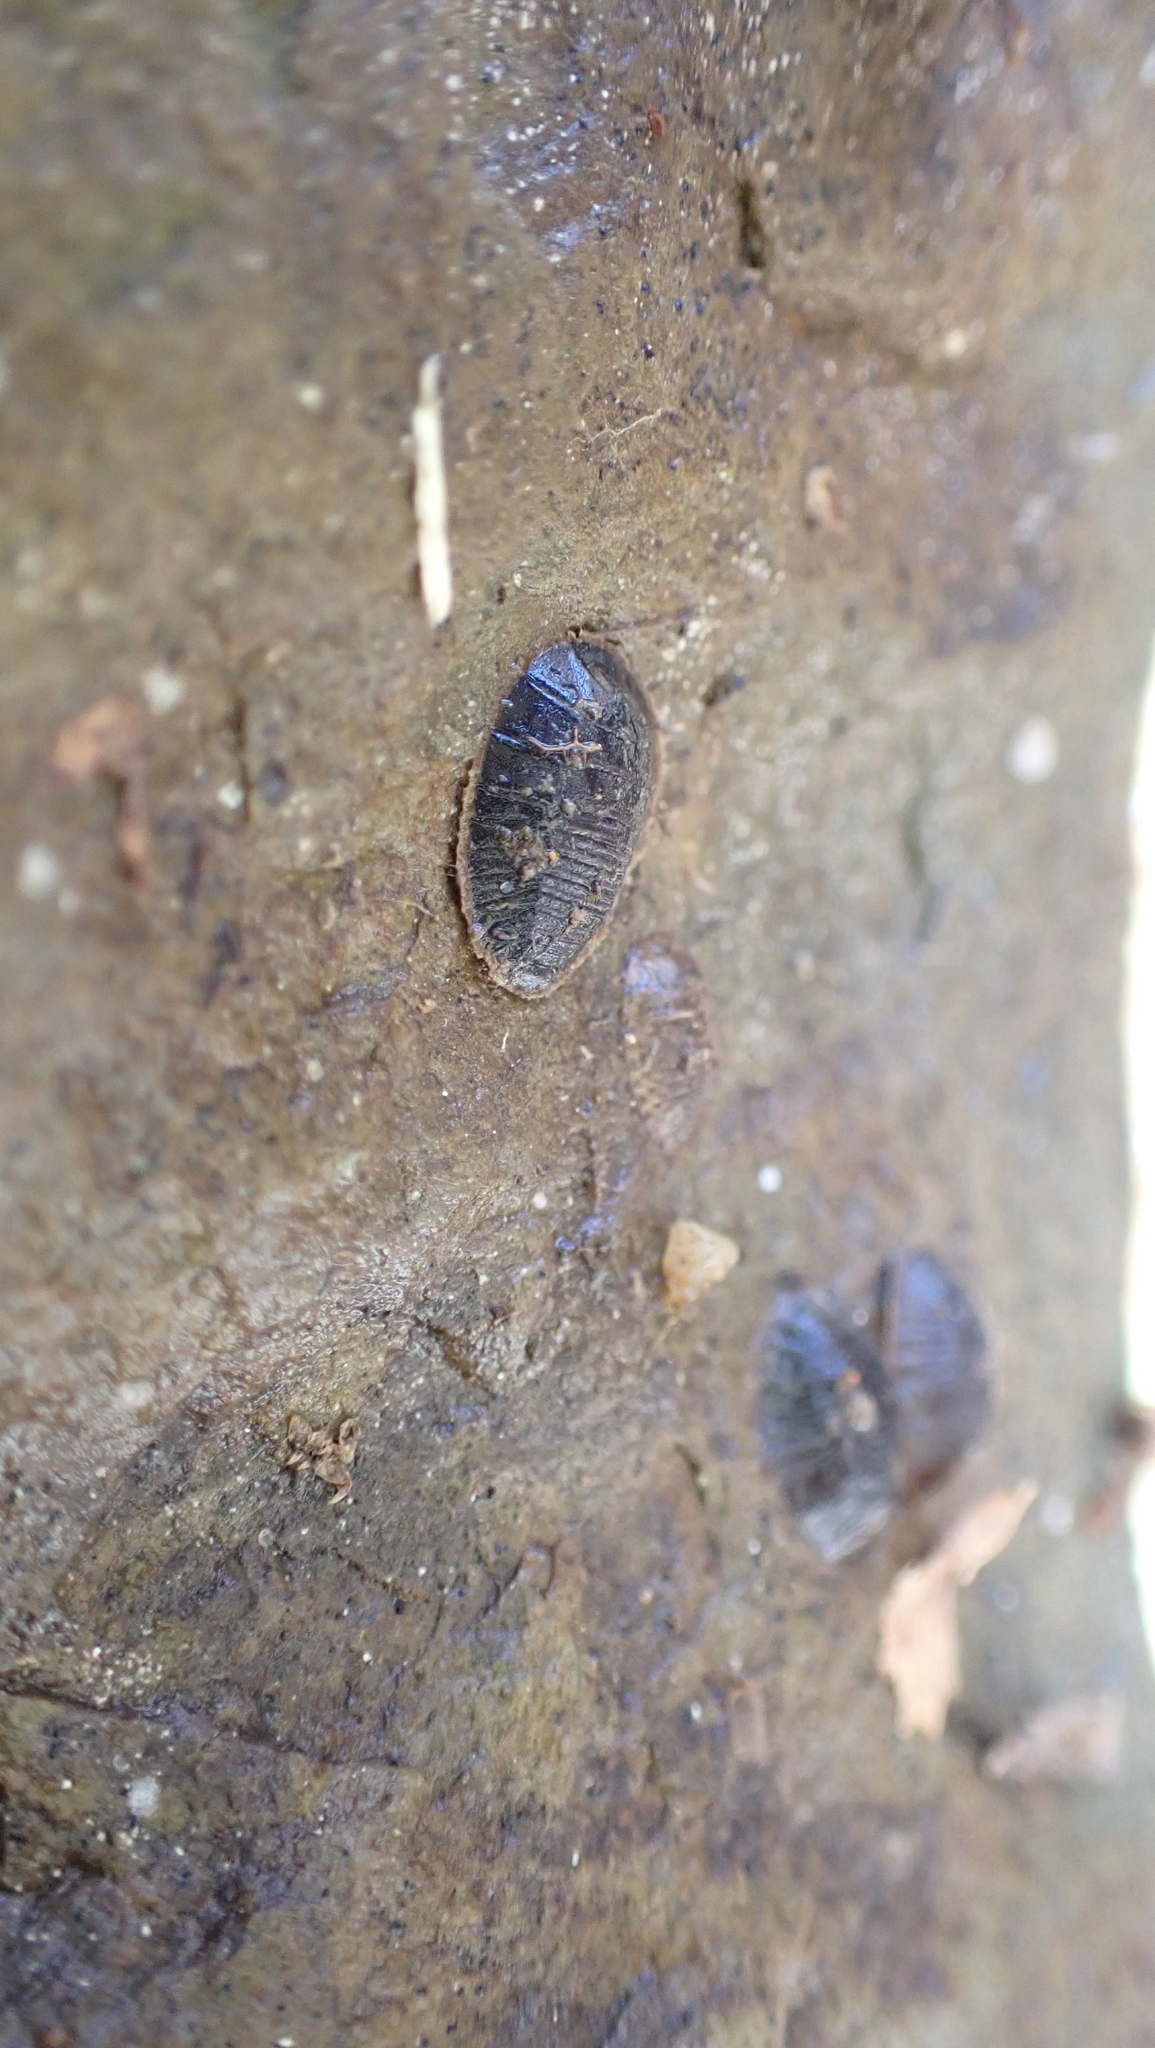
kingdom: Animalia
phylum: Arthropoda
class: Insecta
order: Coleoptera
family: Psephenidae
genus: Psephenus
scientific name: Psephenus herricki
